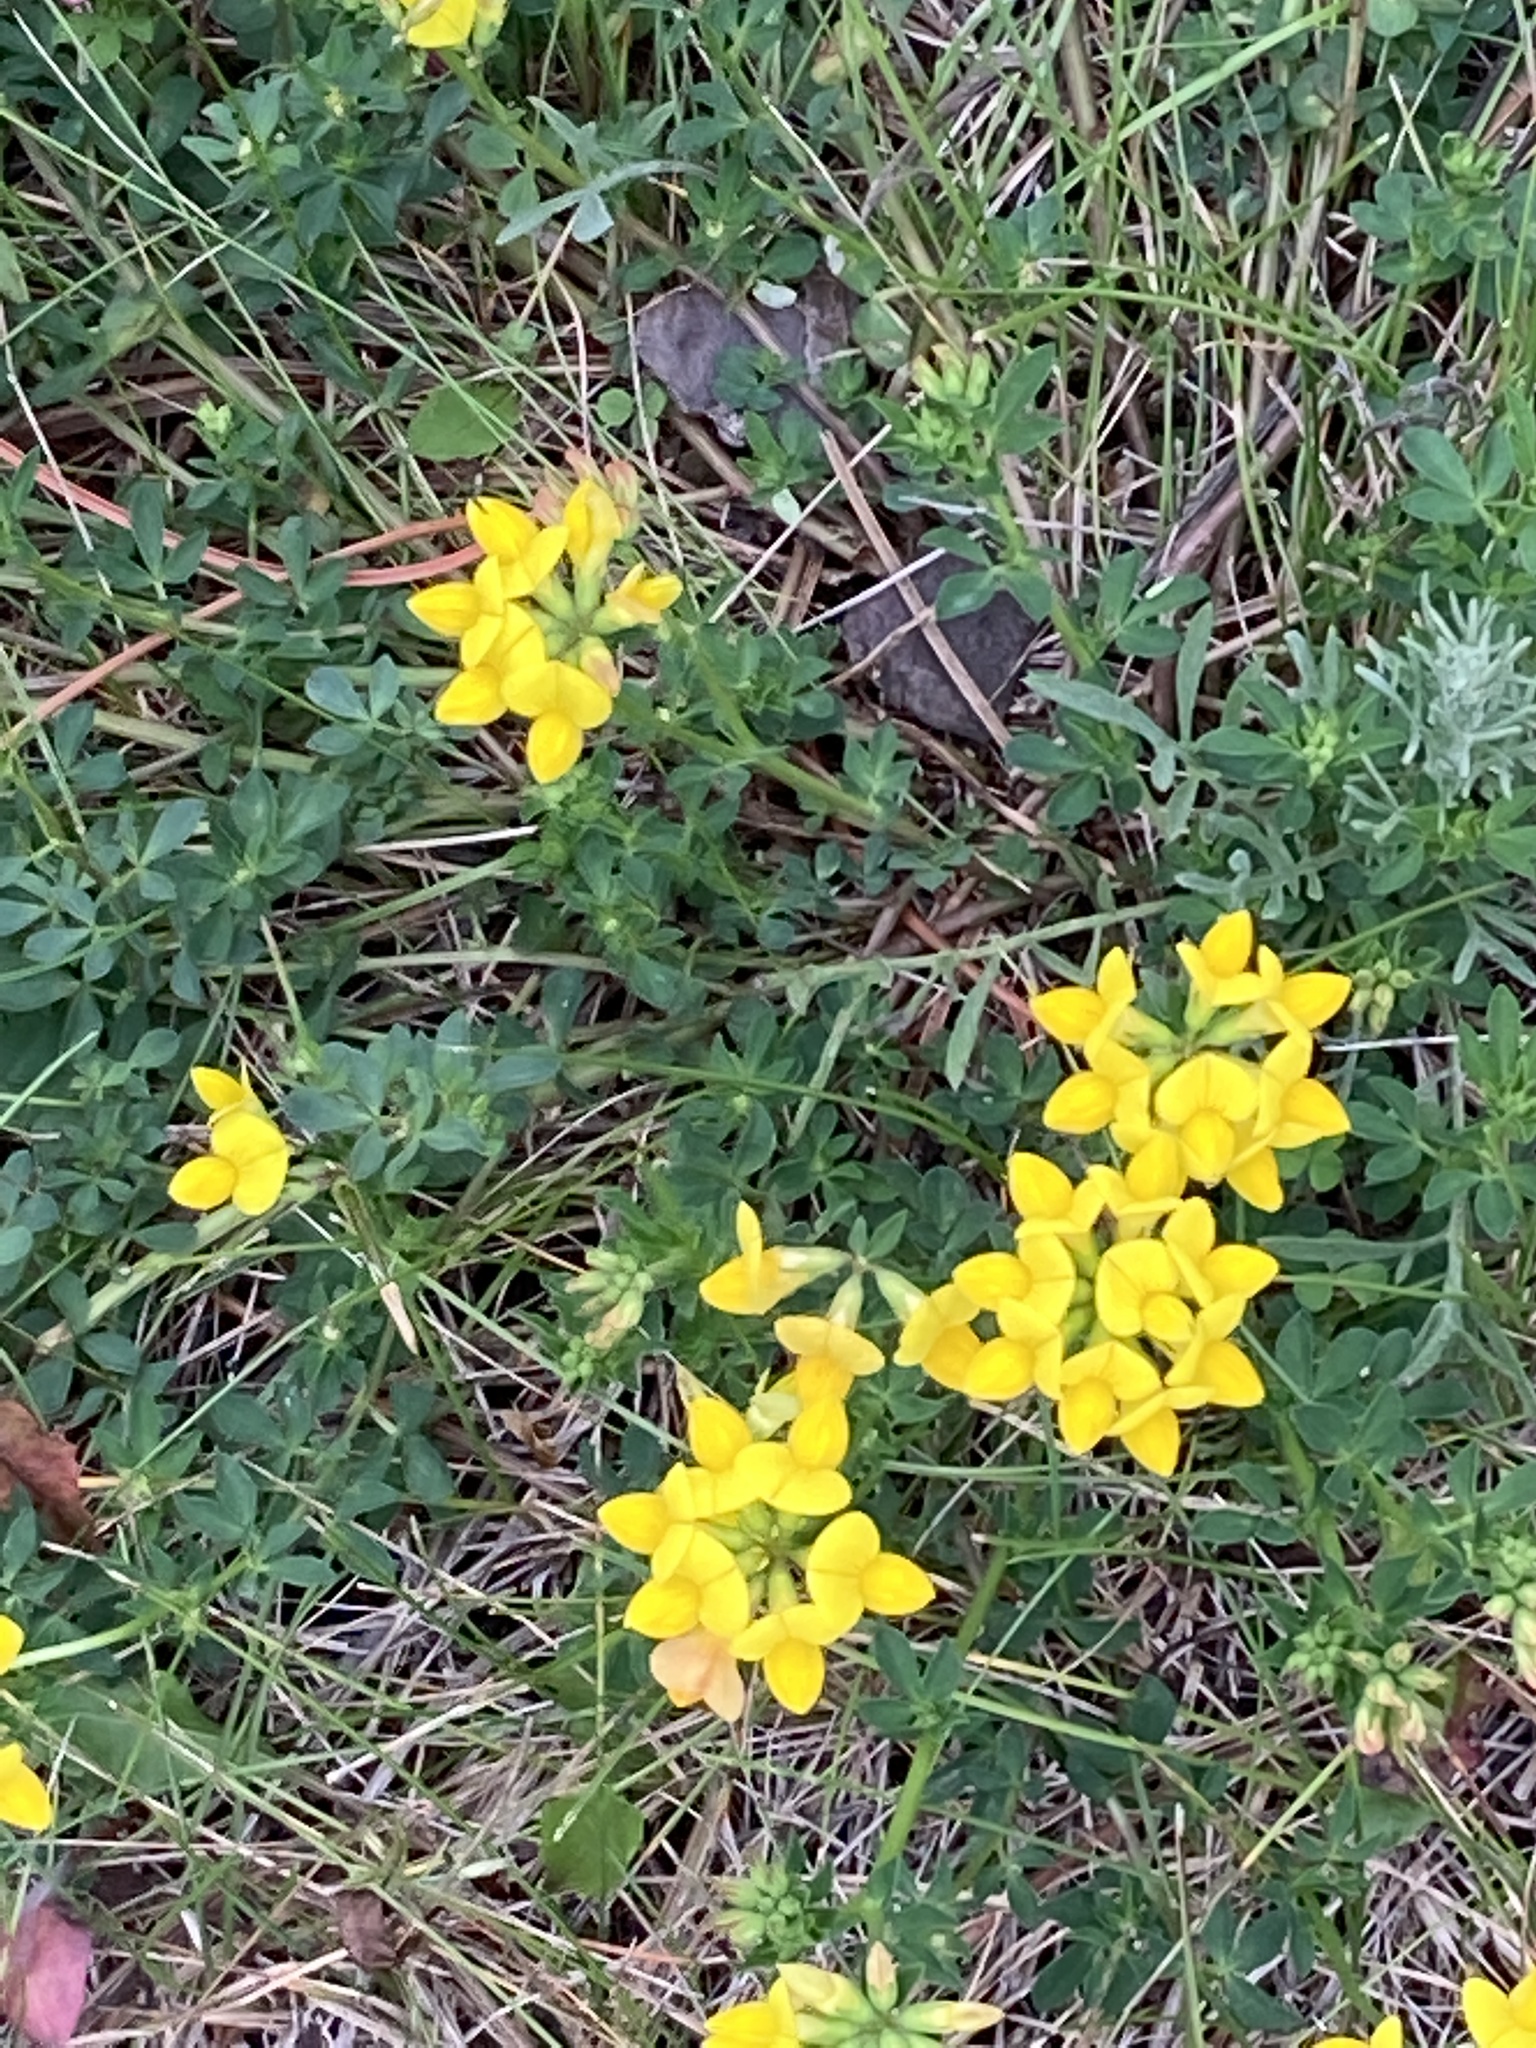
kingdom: Plantae
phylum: Tracheophyta
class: Magnoliopsida
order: Fabales
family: Fabaceae
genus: Lotus
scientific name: Lotus corniculatus
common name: Common bird's-foot-trefoil
